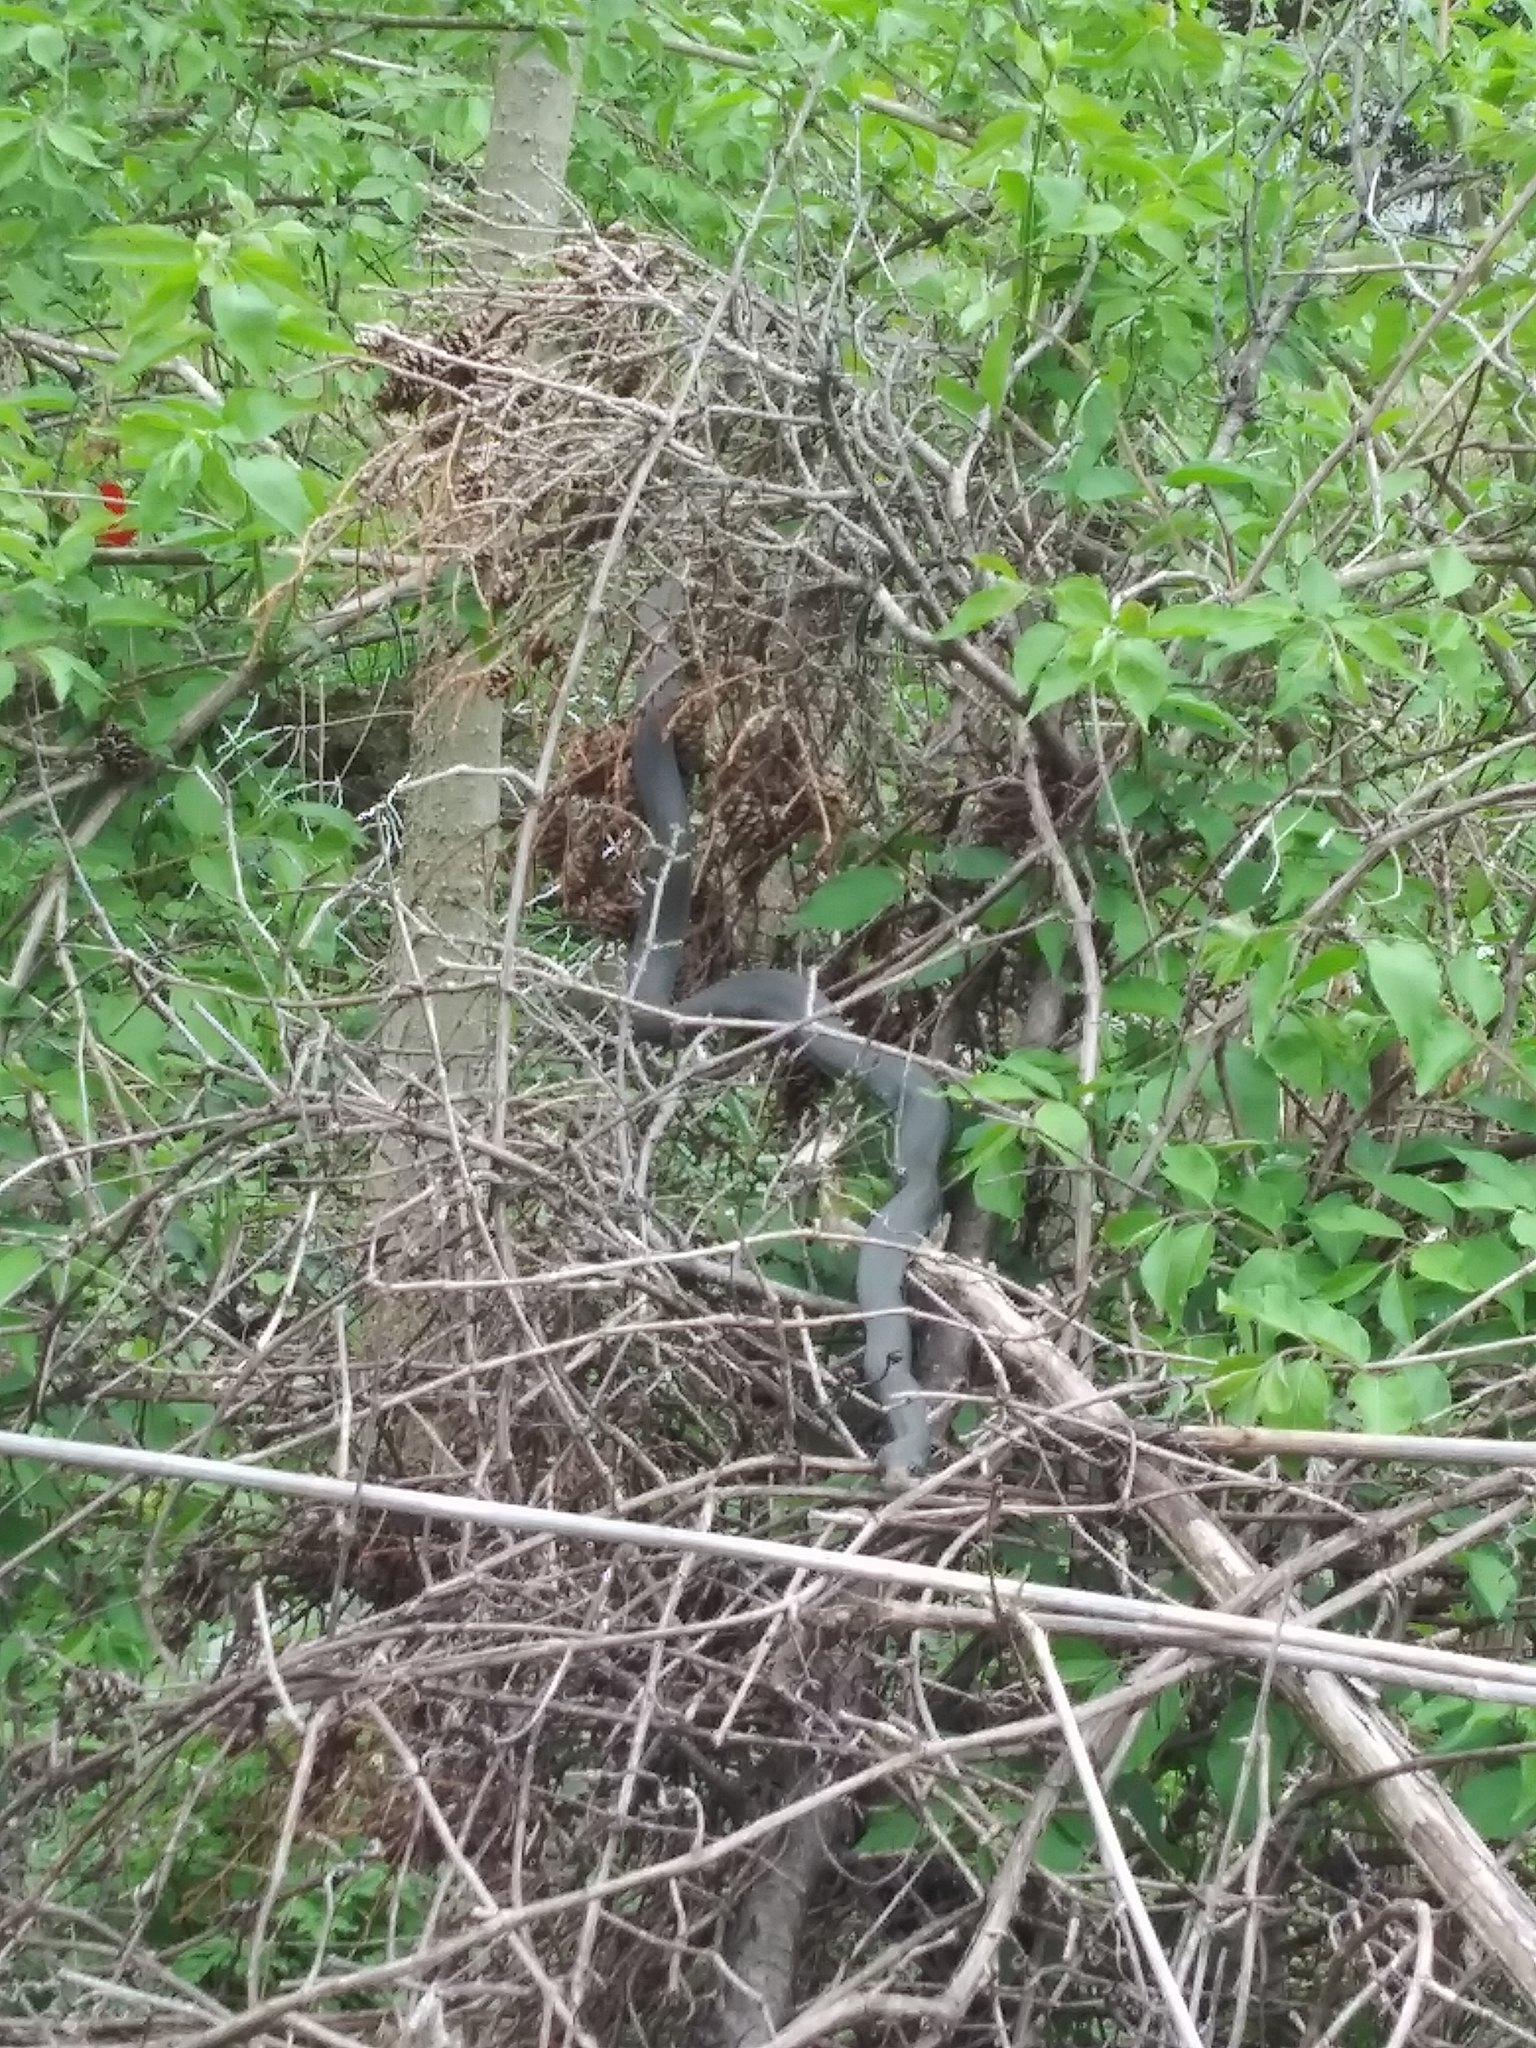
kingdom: Animalia
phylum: Chordata
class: Squamata
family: Colubridae
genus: Coluber
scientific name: Coluber constrictor
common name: Eastern racer
